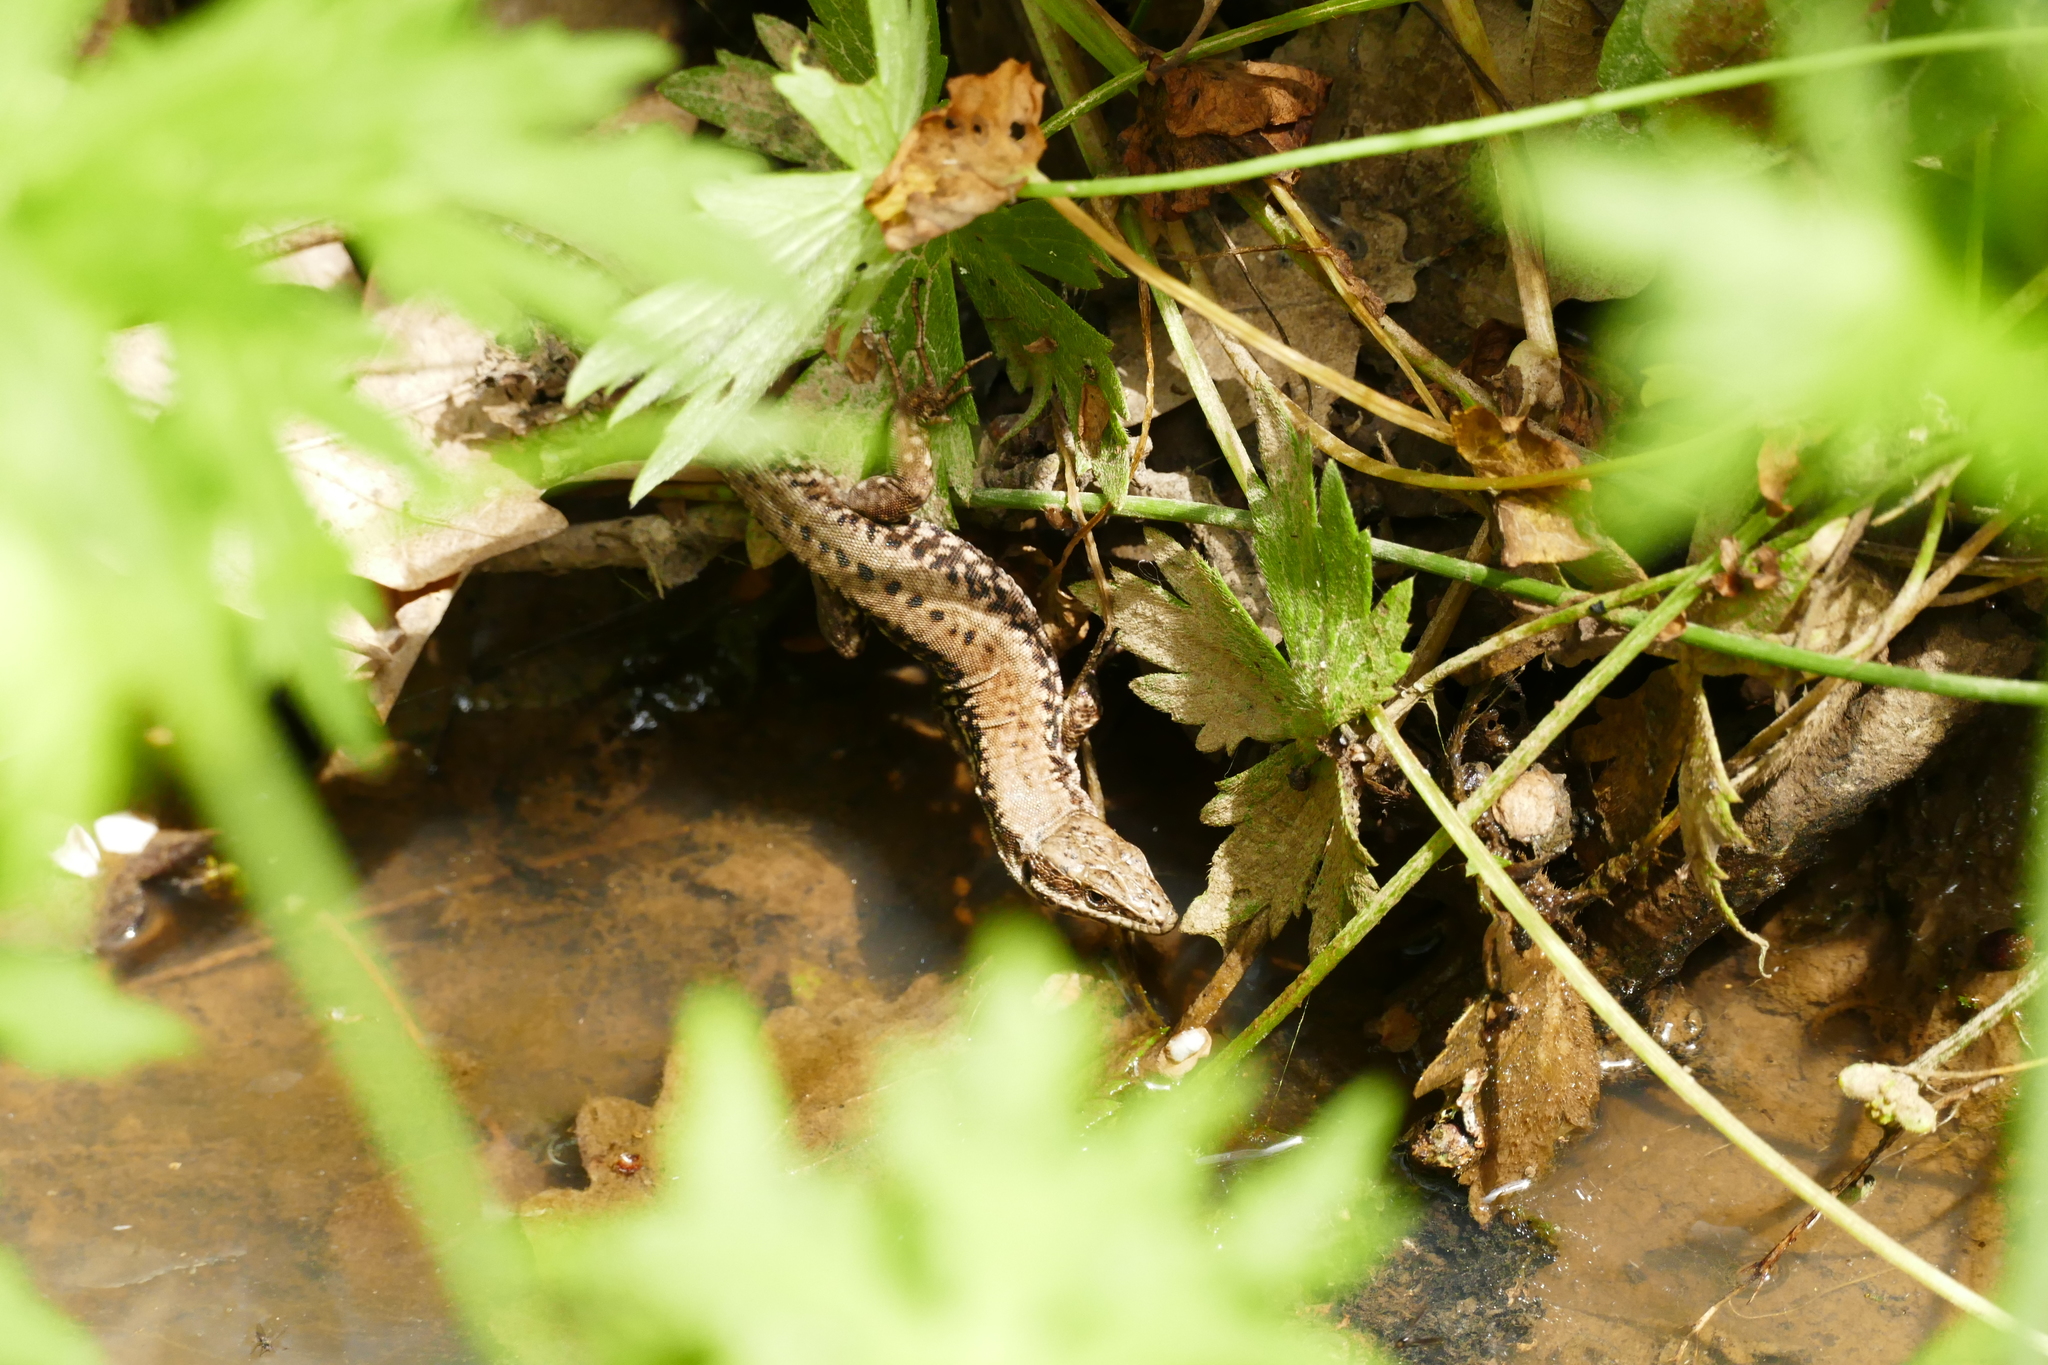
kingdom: Animalia
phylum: Chordata
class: Squamata
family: Lacertidae
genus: Podarcis
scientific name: Podarcis muralis
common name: Common wall lizard
